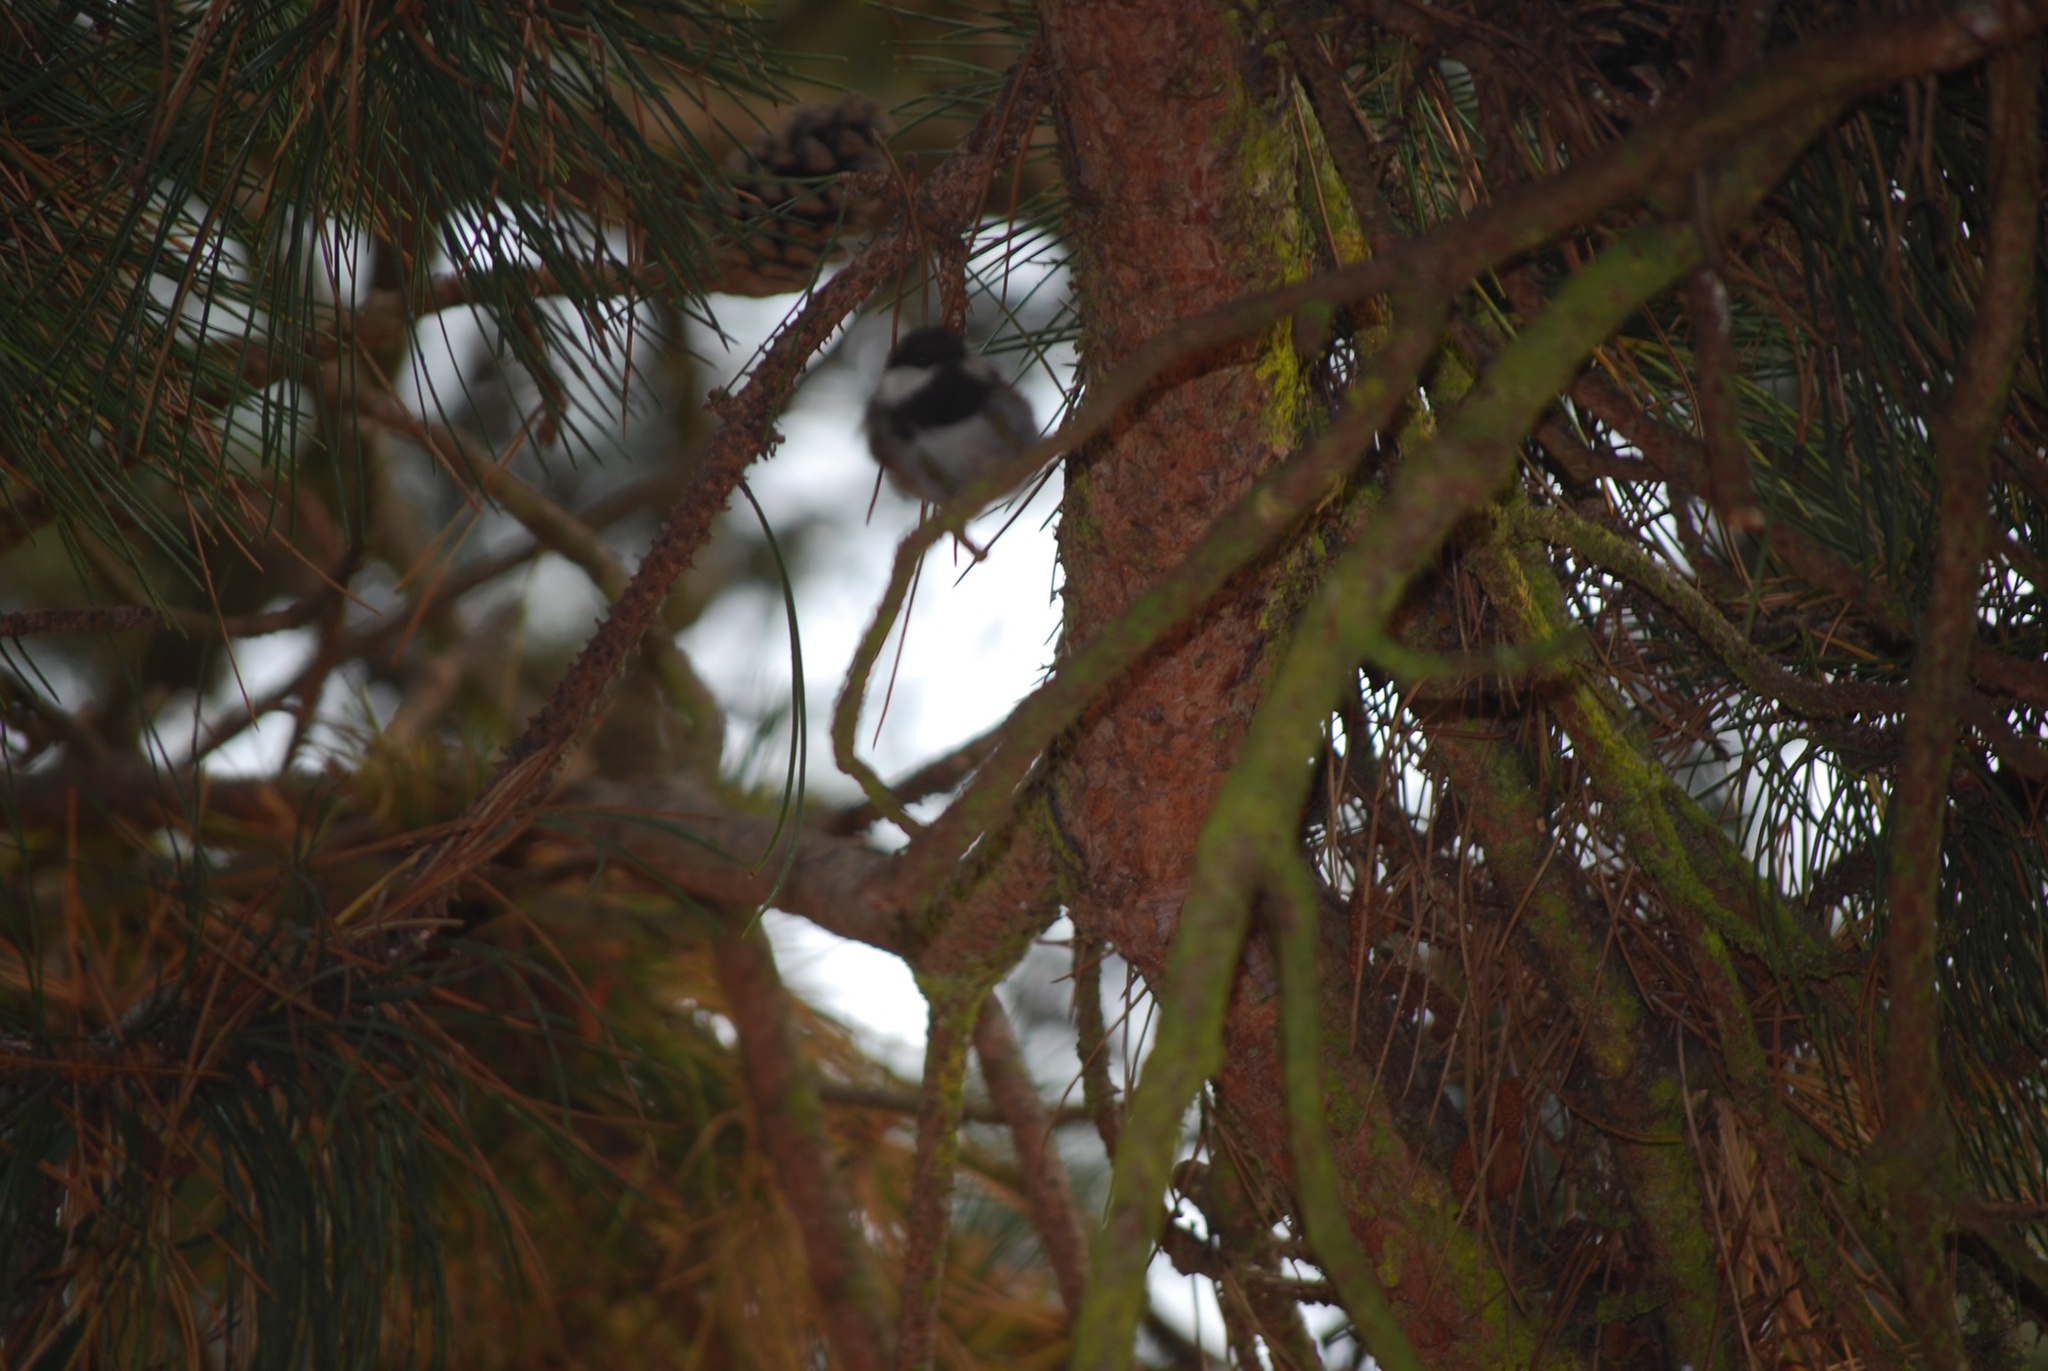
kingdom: Animalia
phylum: Chordata
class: Aves
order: Passeriformes
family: Paridae
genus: Poecile
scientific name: Poecile rufescens
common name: Chestnut-backed chickadee
